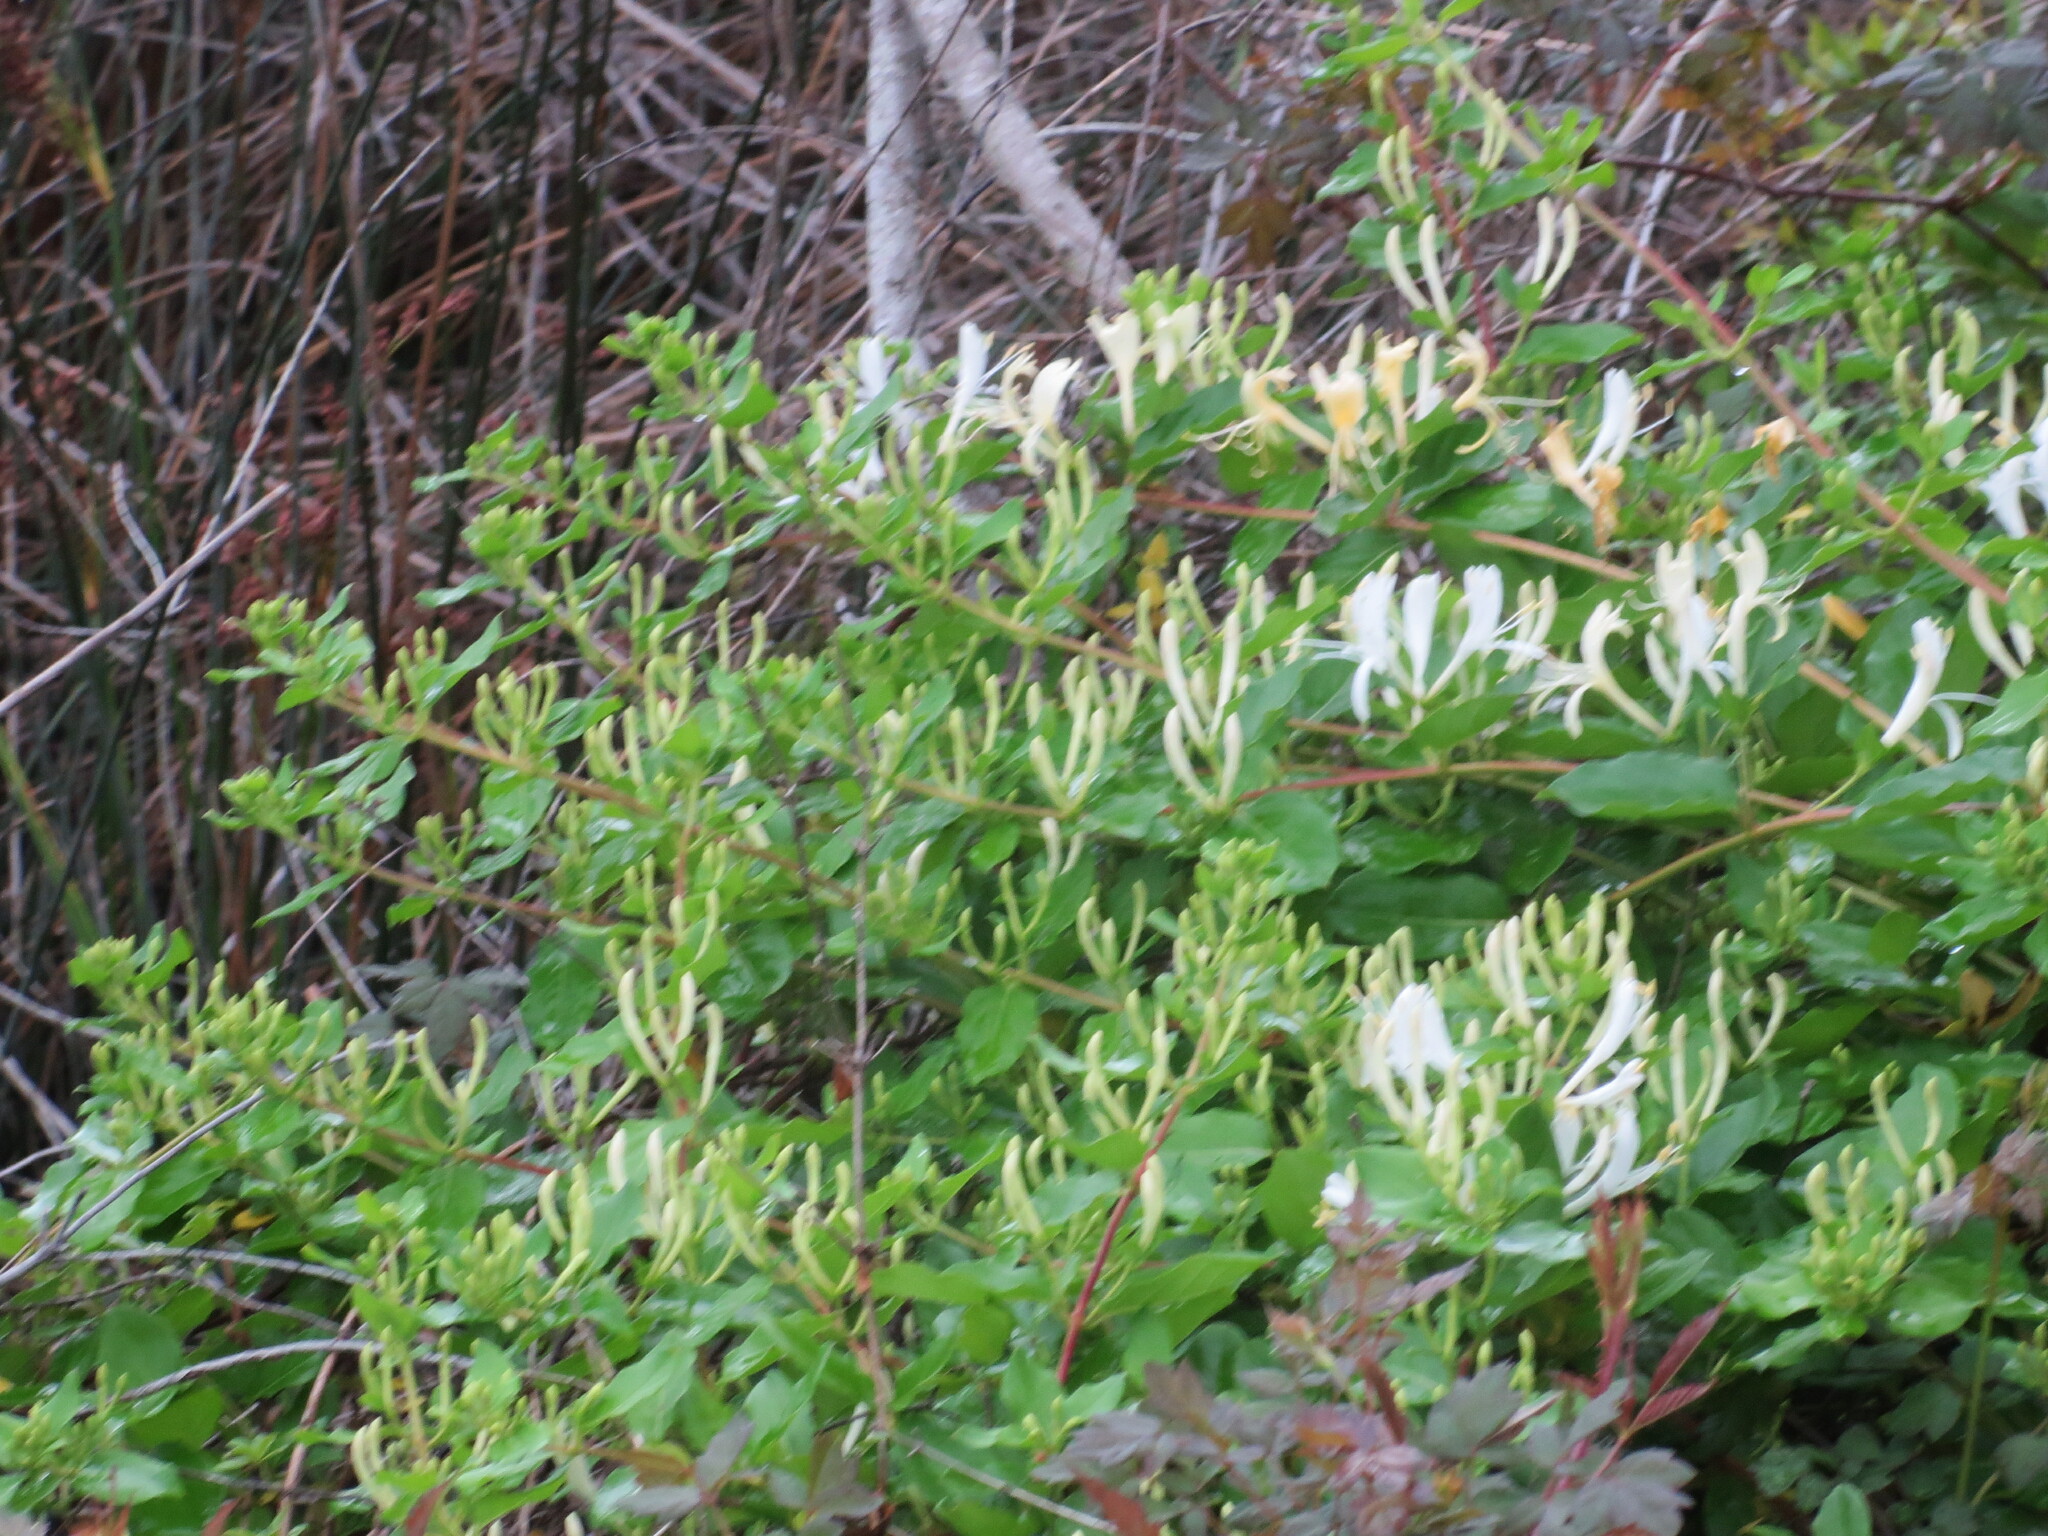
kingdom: Plantae
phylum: Tracheophyta
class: Magnoliopsida
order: Dipsacales
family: Caprifoliaceae
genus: Lonicera
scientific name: Lonicera japonica
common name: Japanese honeysuckle
